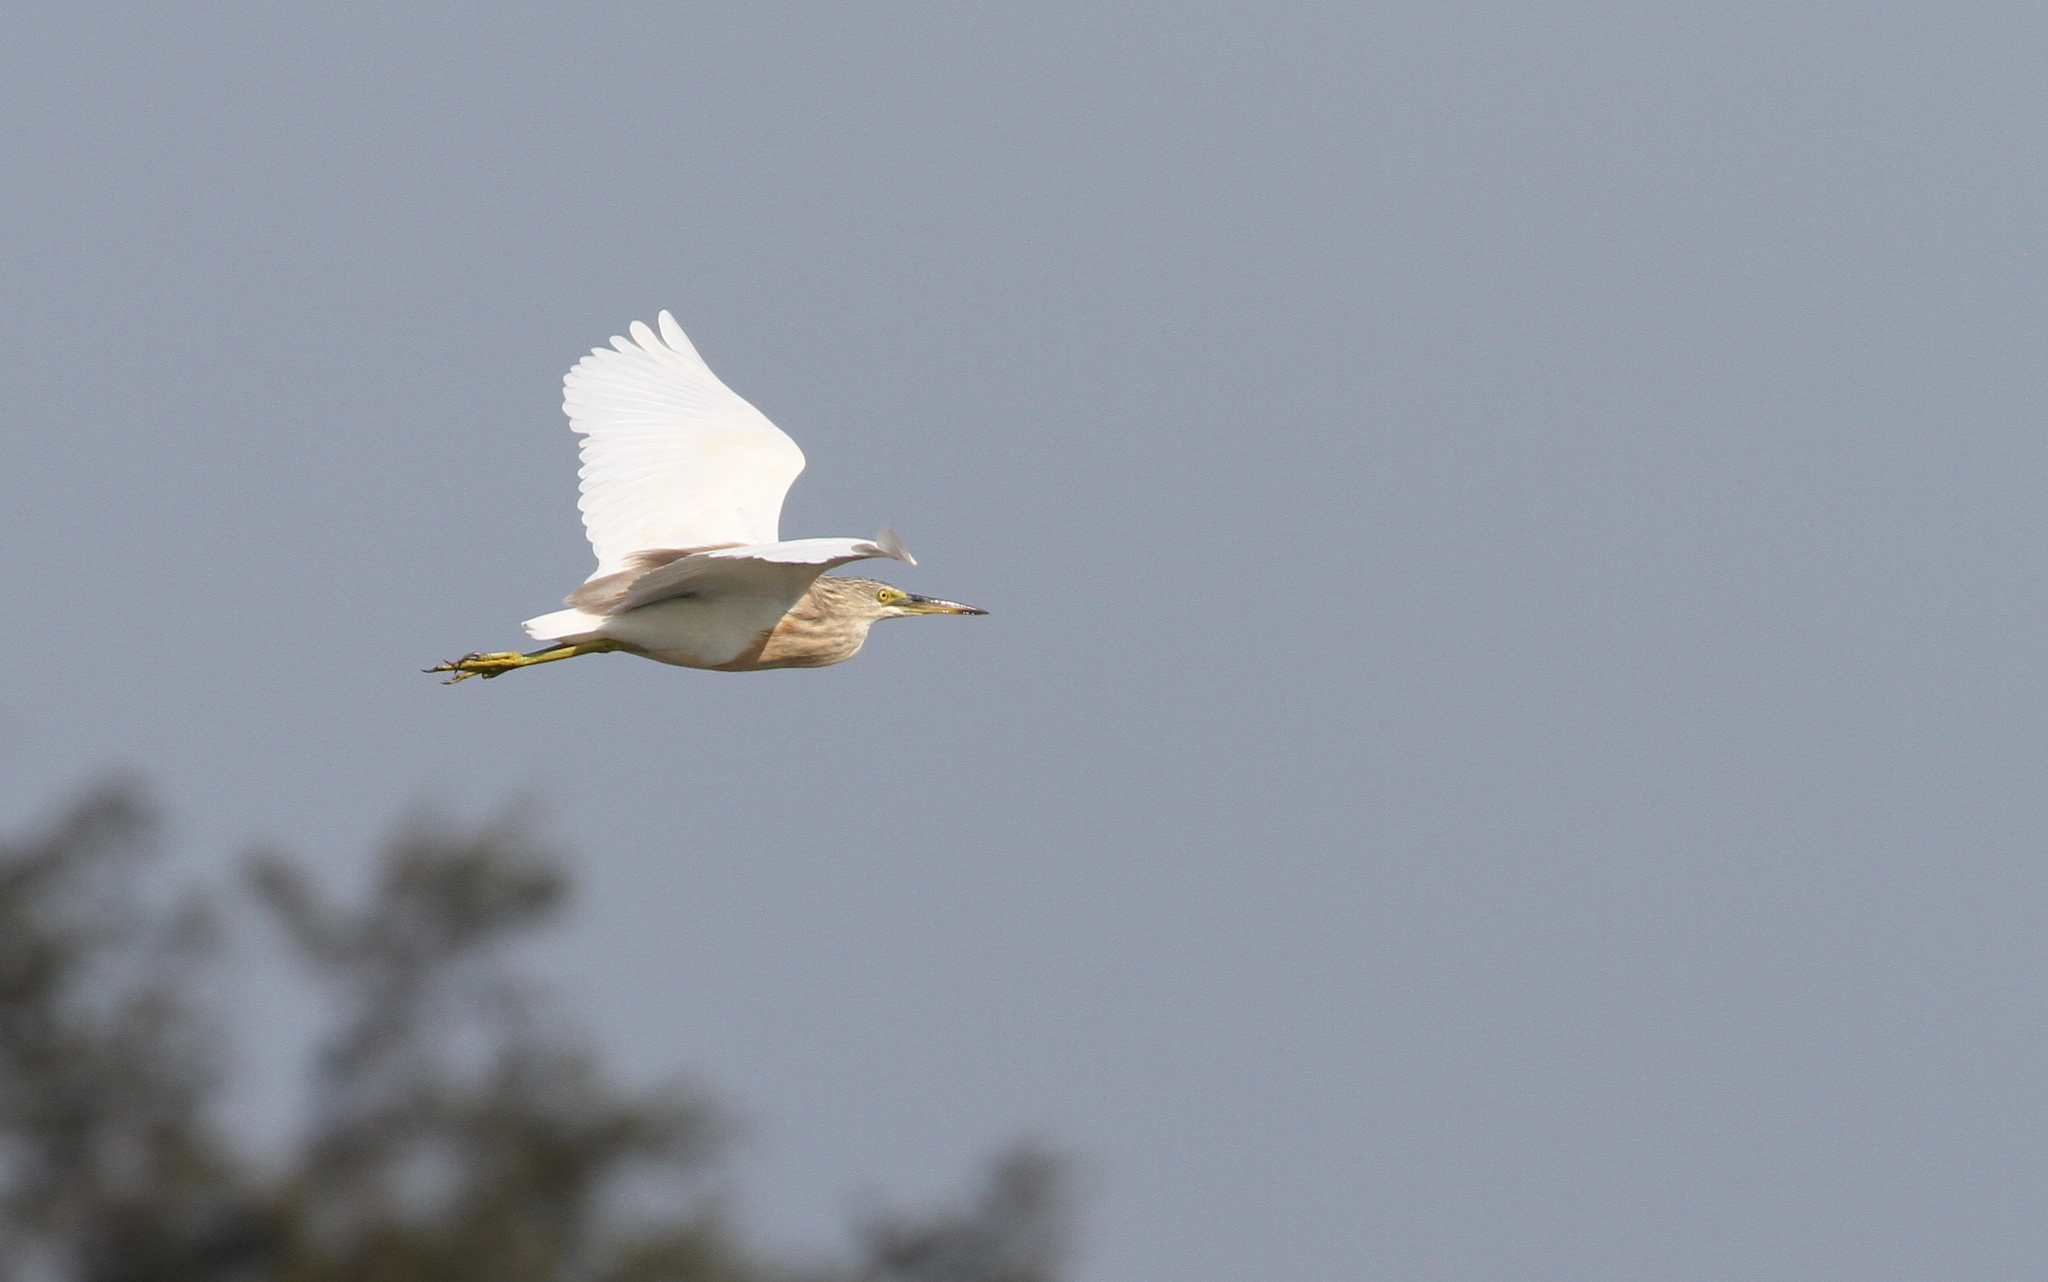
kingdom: Animalia
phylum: Chordata
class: Aves
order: Pelecaniformes
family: Ardeidae
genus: Ardeola
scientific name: Ardeola speciosa
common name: Javan pond heron
